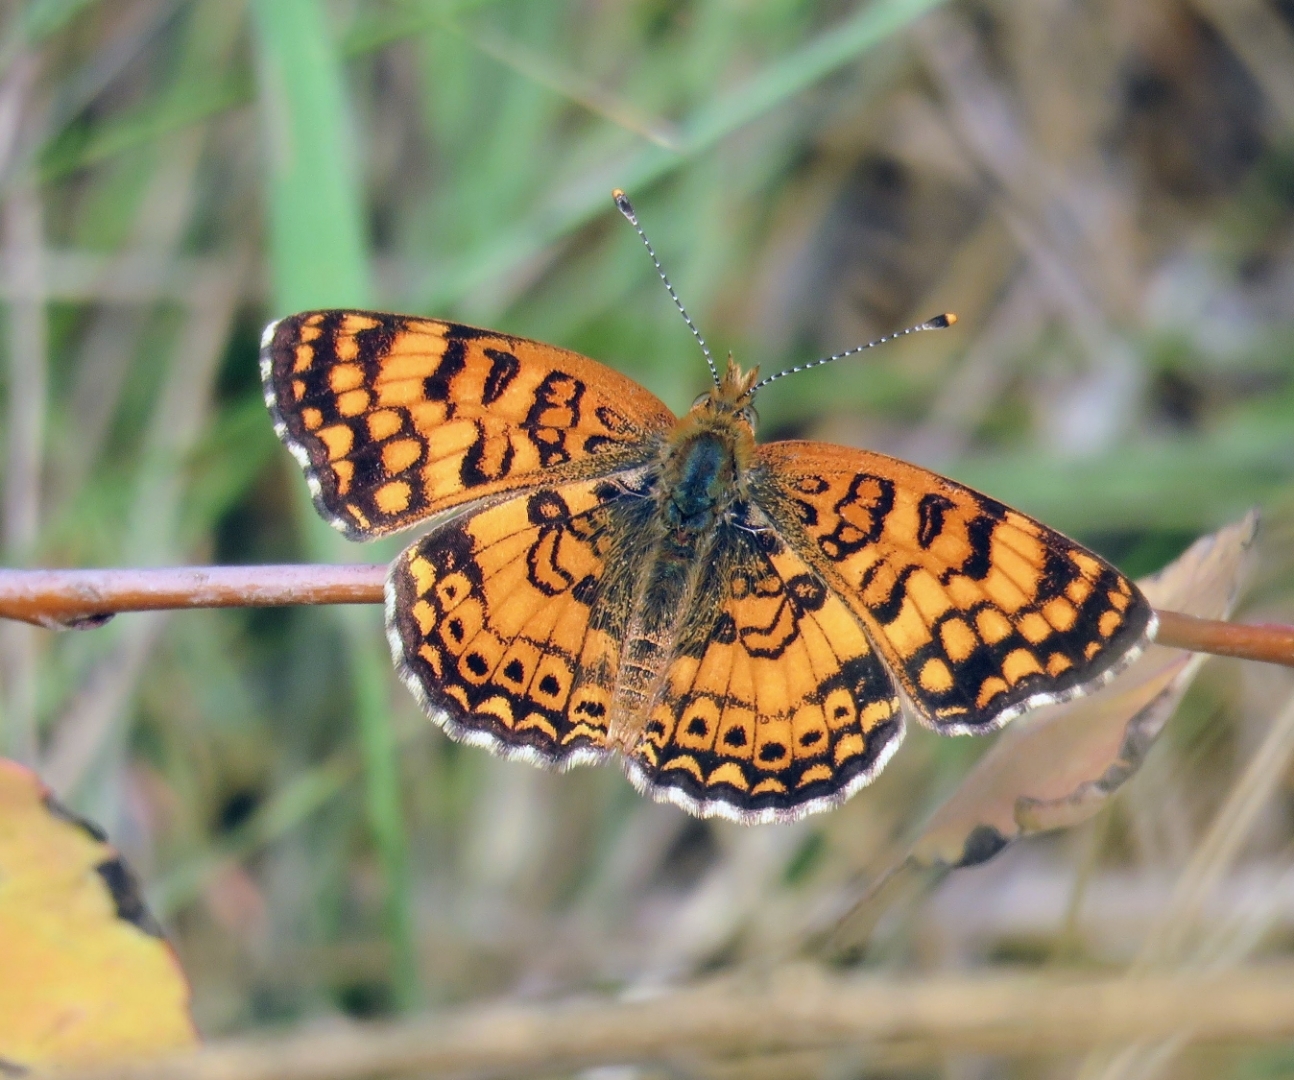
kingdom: Animalia
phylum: Arthropoda
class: Insecta
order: Lepidoptera
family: Nymphalidae
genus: Eresia
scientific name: Eresia aveyrona
